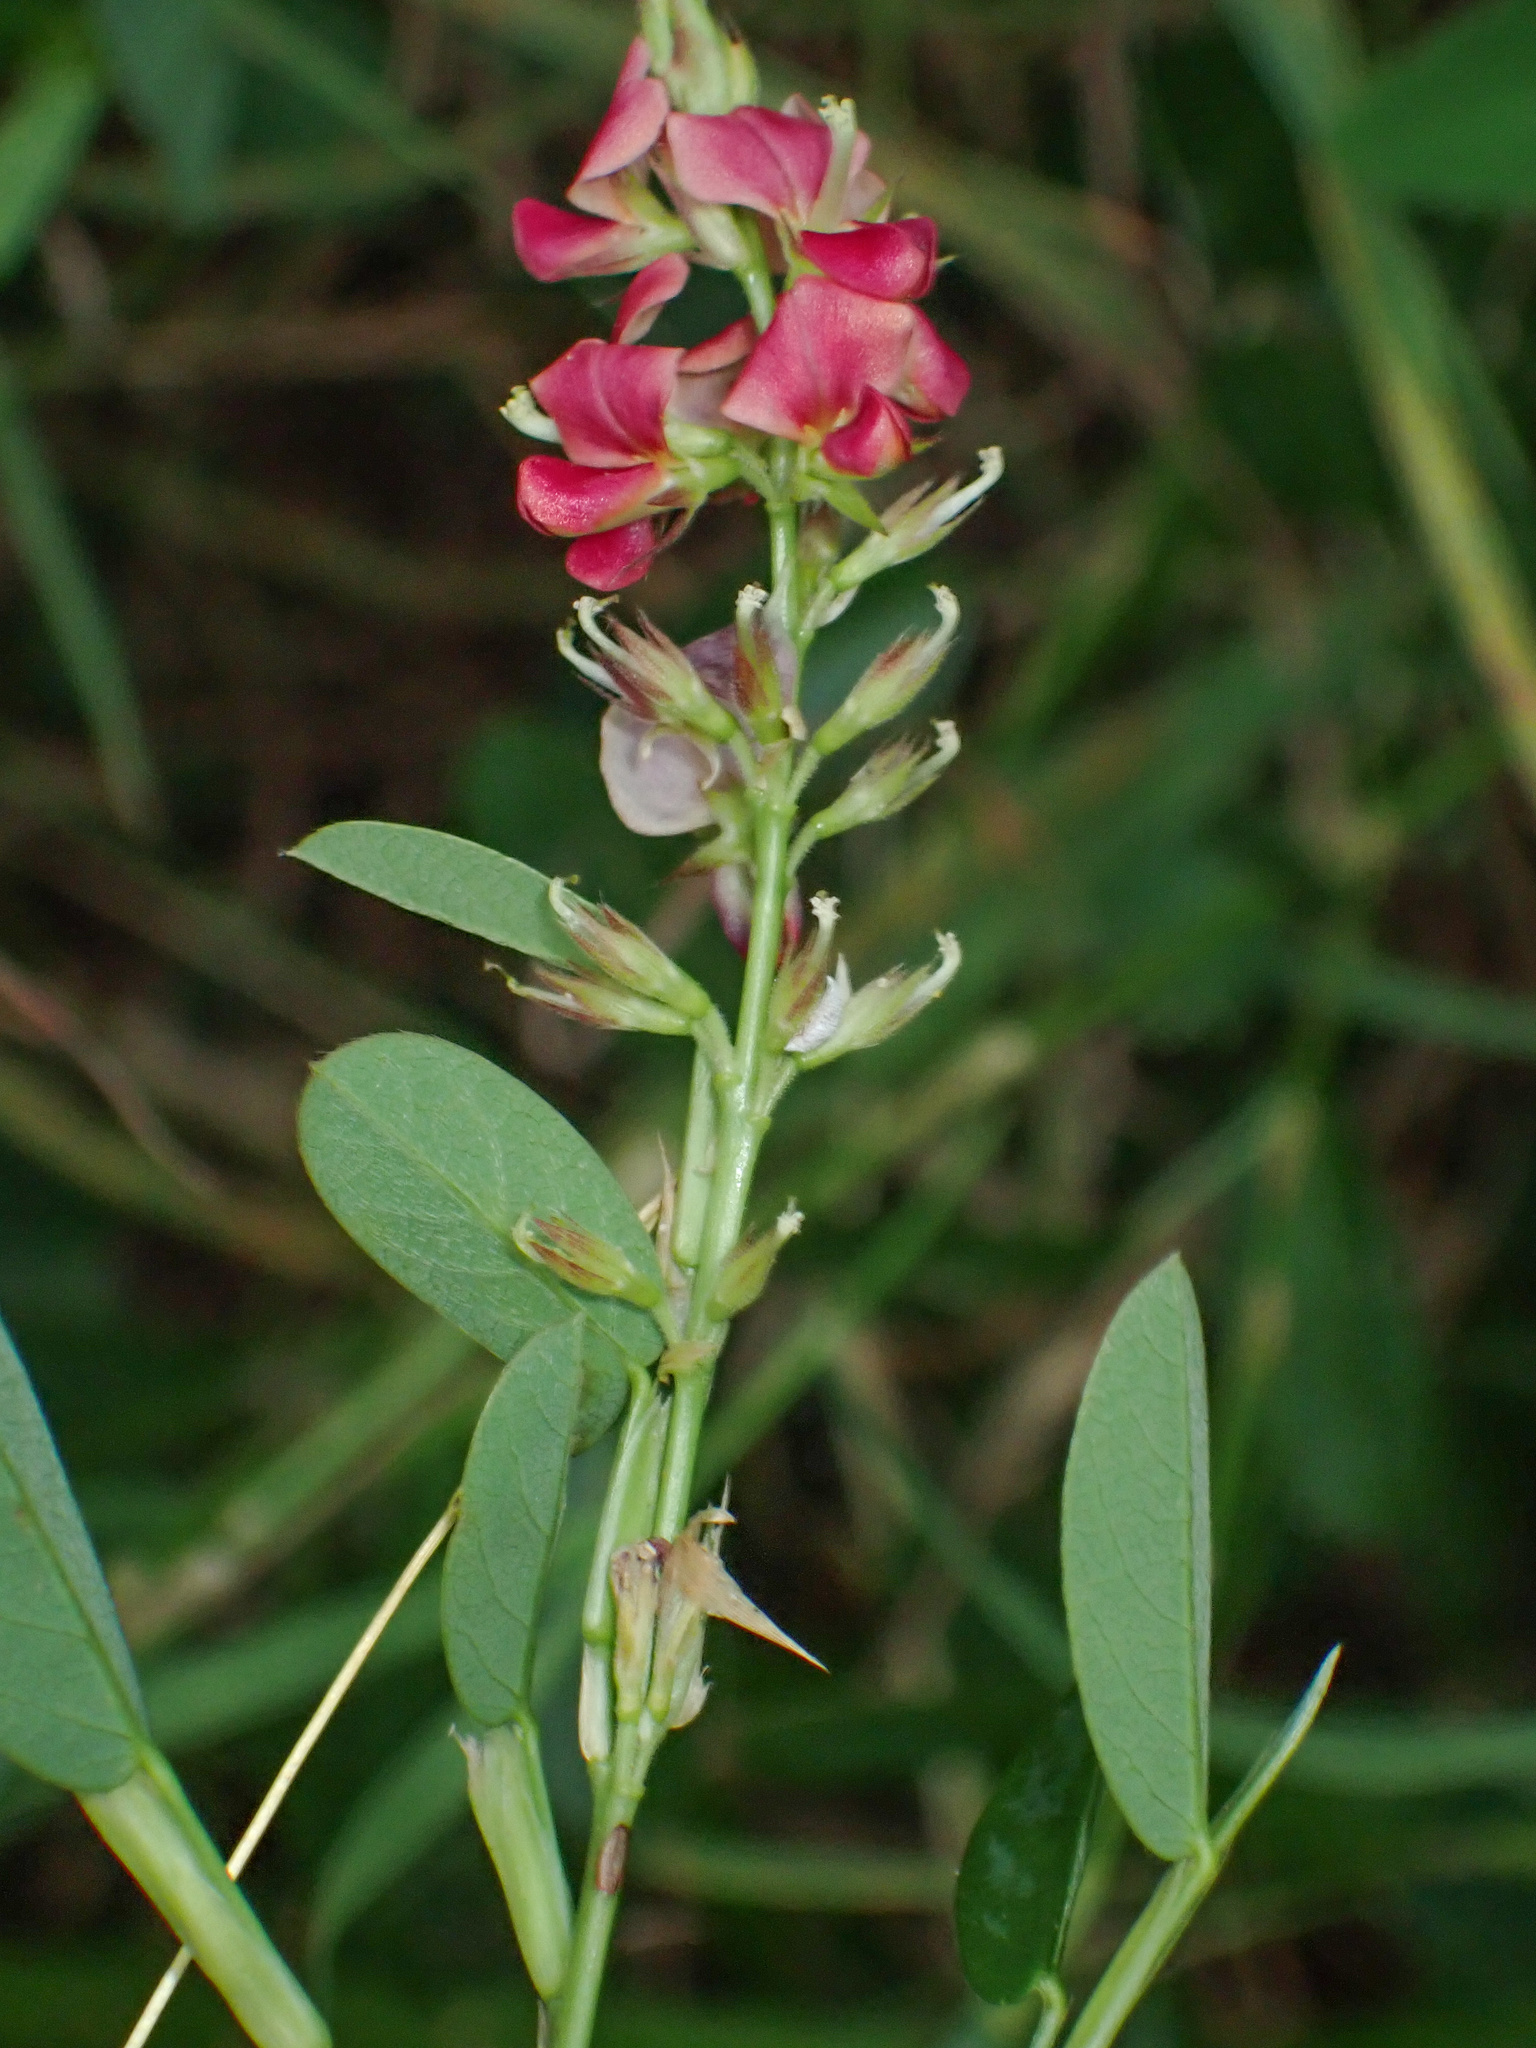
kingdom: Plantae
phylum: Tracheophyta
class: Magnoliopsida
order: Fabales
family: Fabaceae
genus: Alysicarpus
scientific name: Alysicarpus vaginalis
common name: White moneywort
